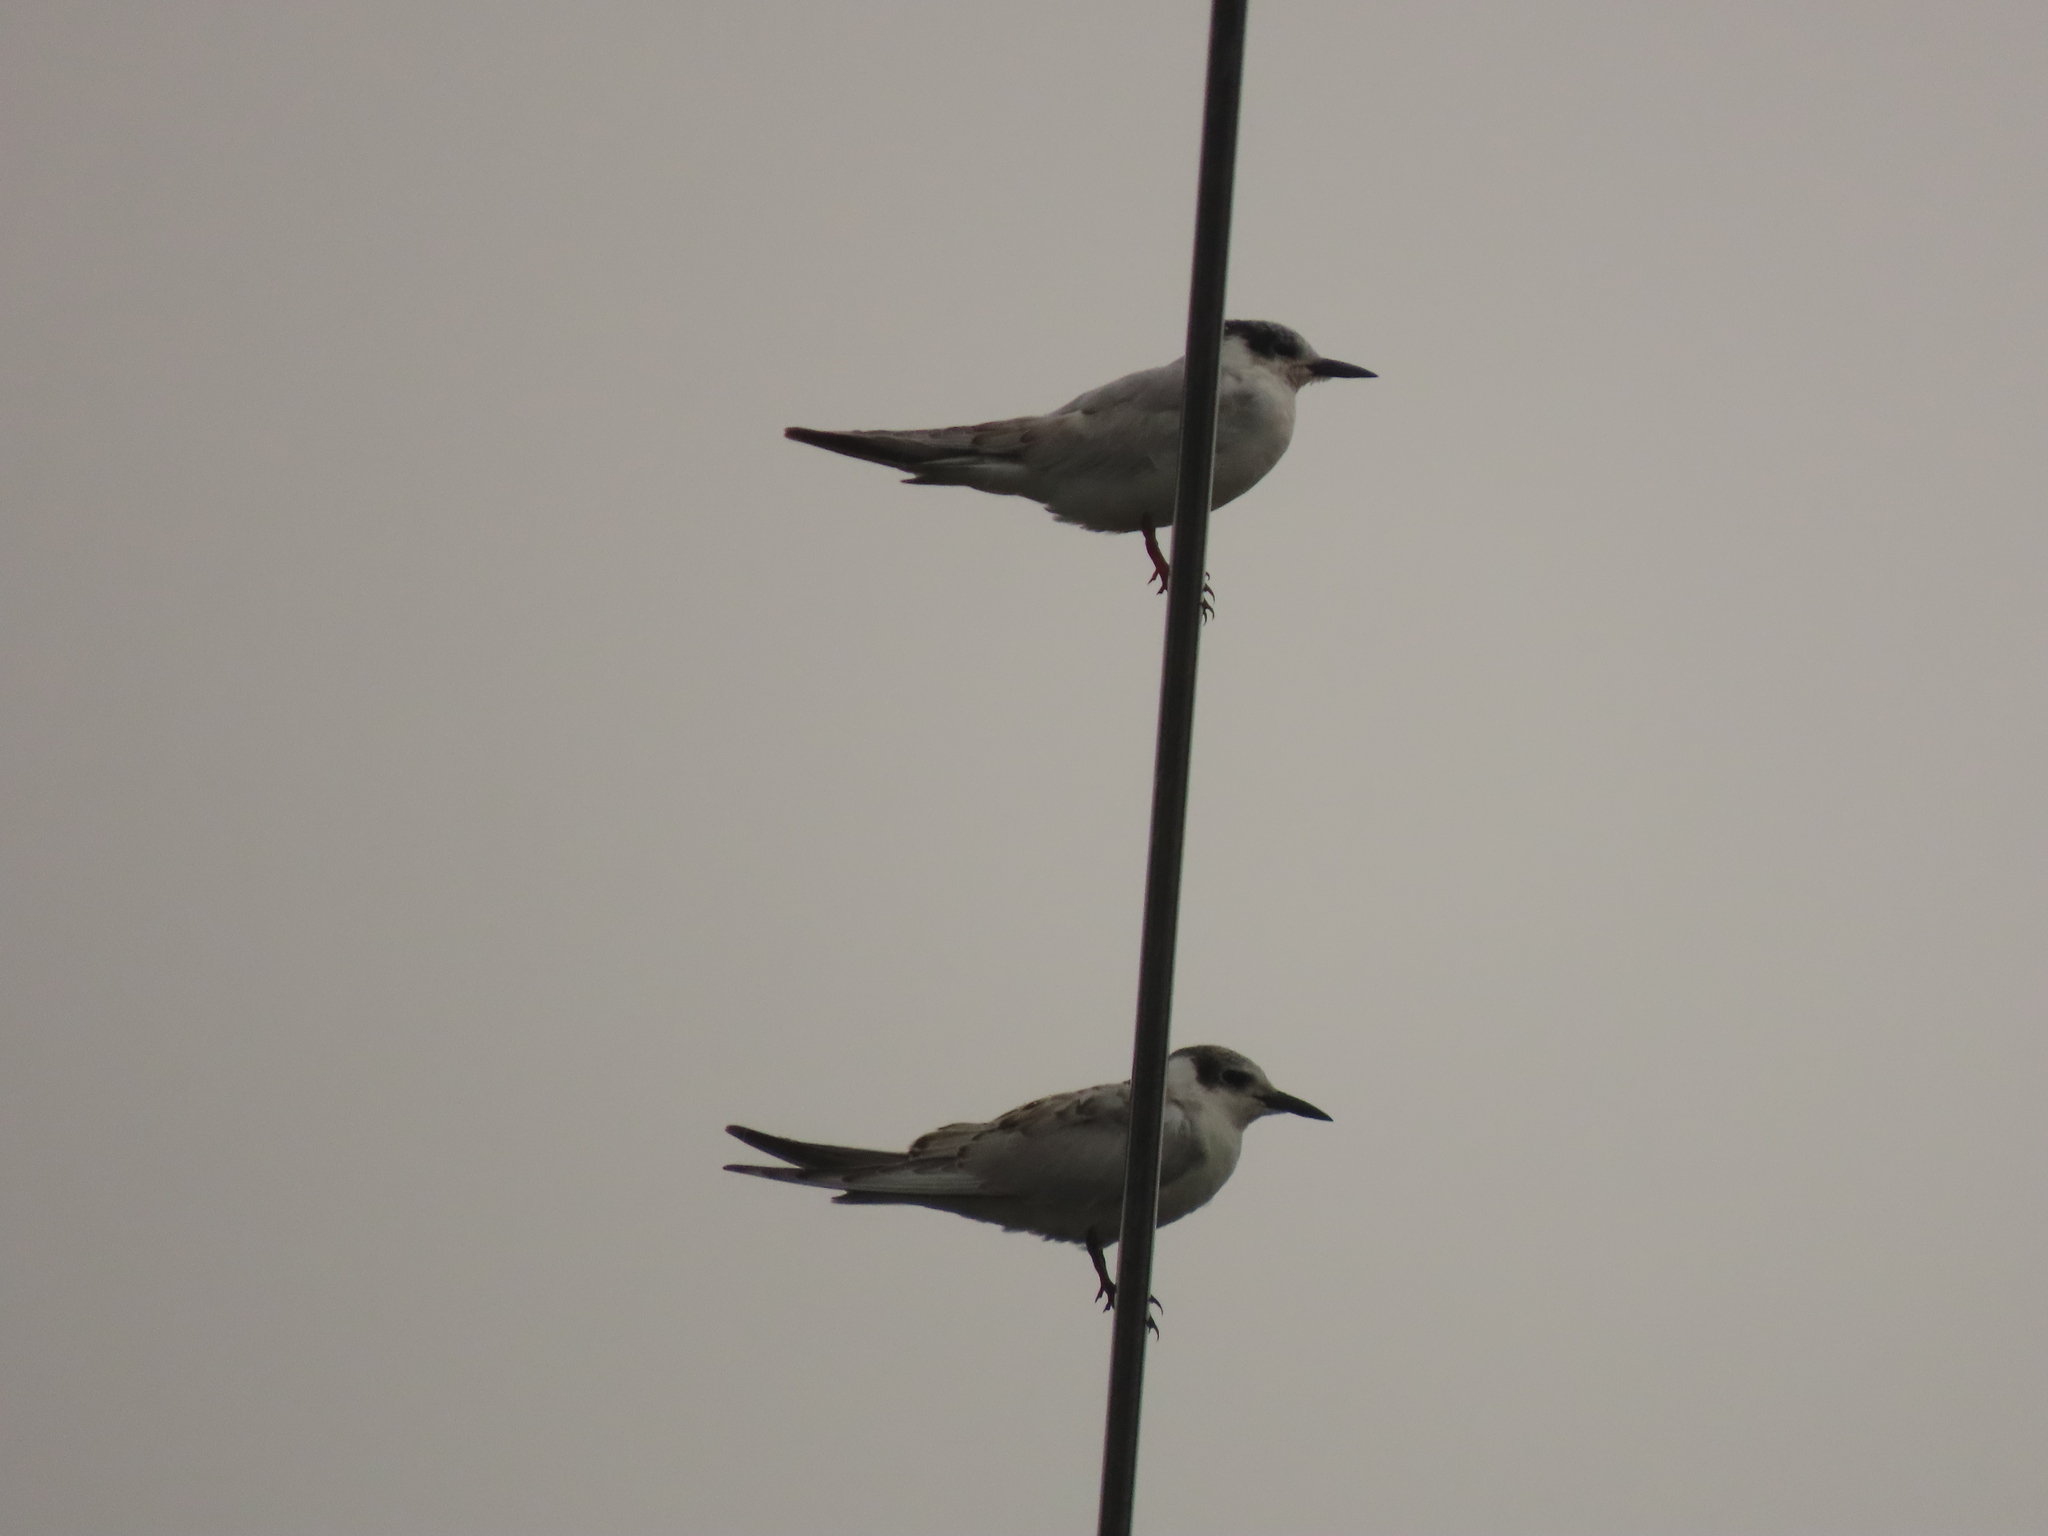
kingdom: Animalia
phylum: Chordata
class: Aves
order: Charadriiformes
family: Laridae
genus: Chlidonias
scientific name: Chlidonias hybrida
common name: Whiskered tern
